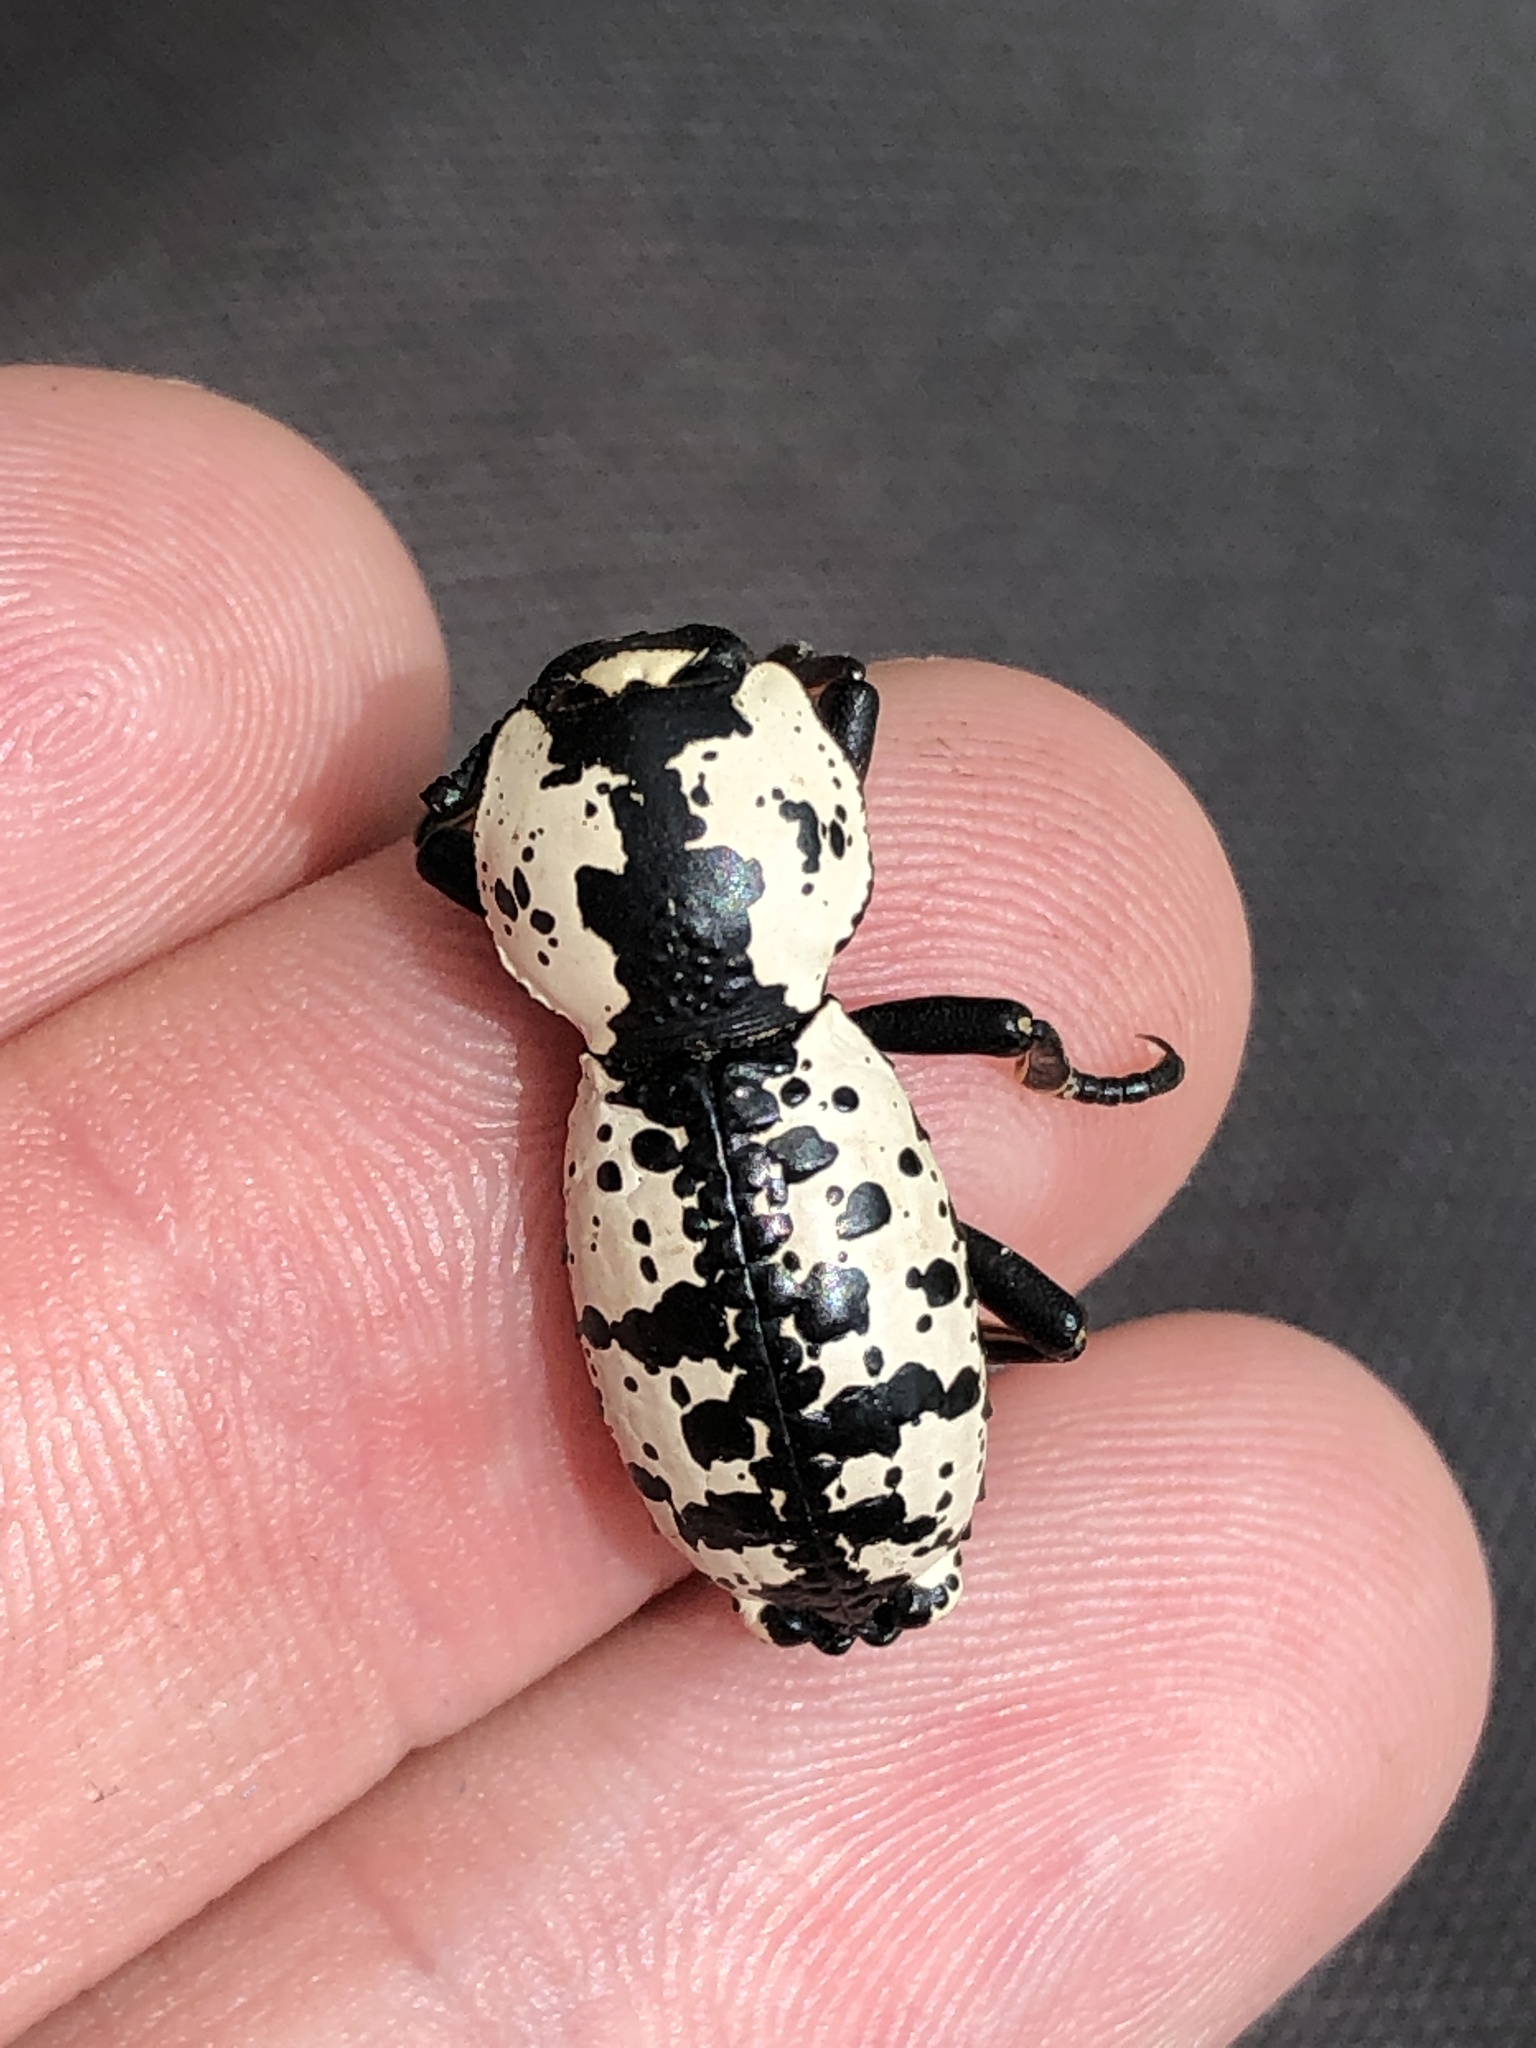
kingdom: Animalia
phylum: Arthropoda
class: Insecta
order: Coleoptera
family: Zopheridae
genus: Zopherus
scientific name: Zopherus nodulosus
